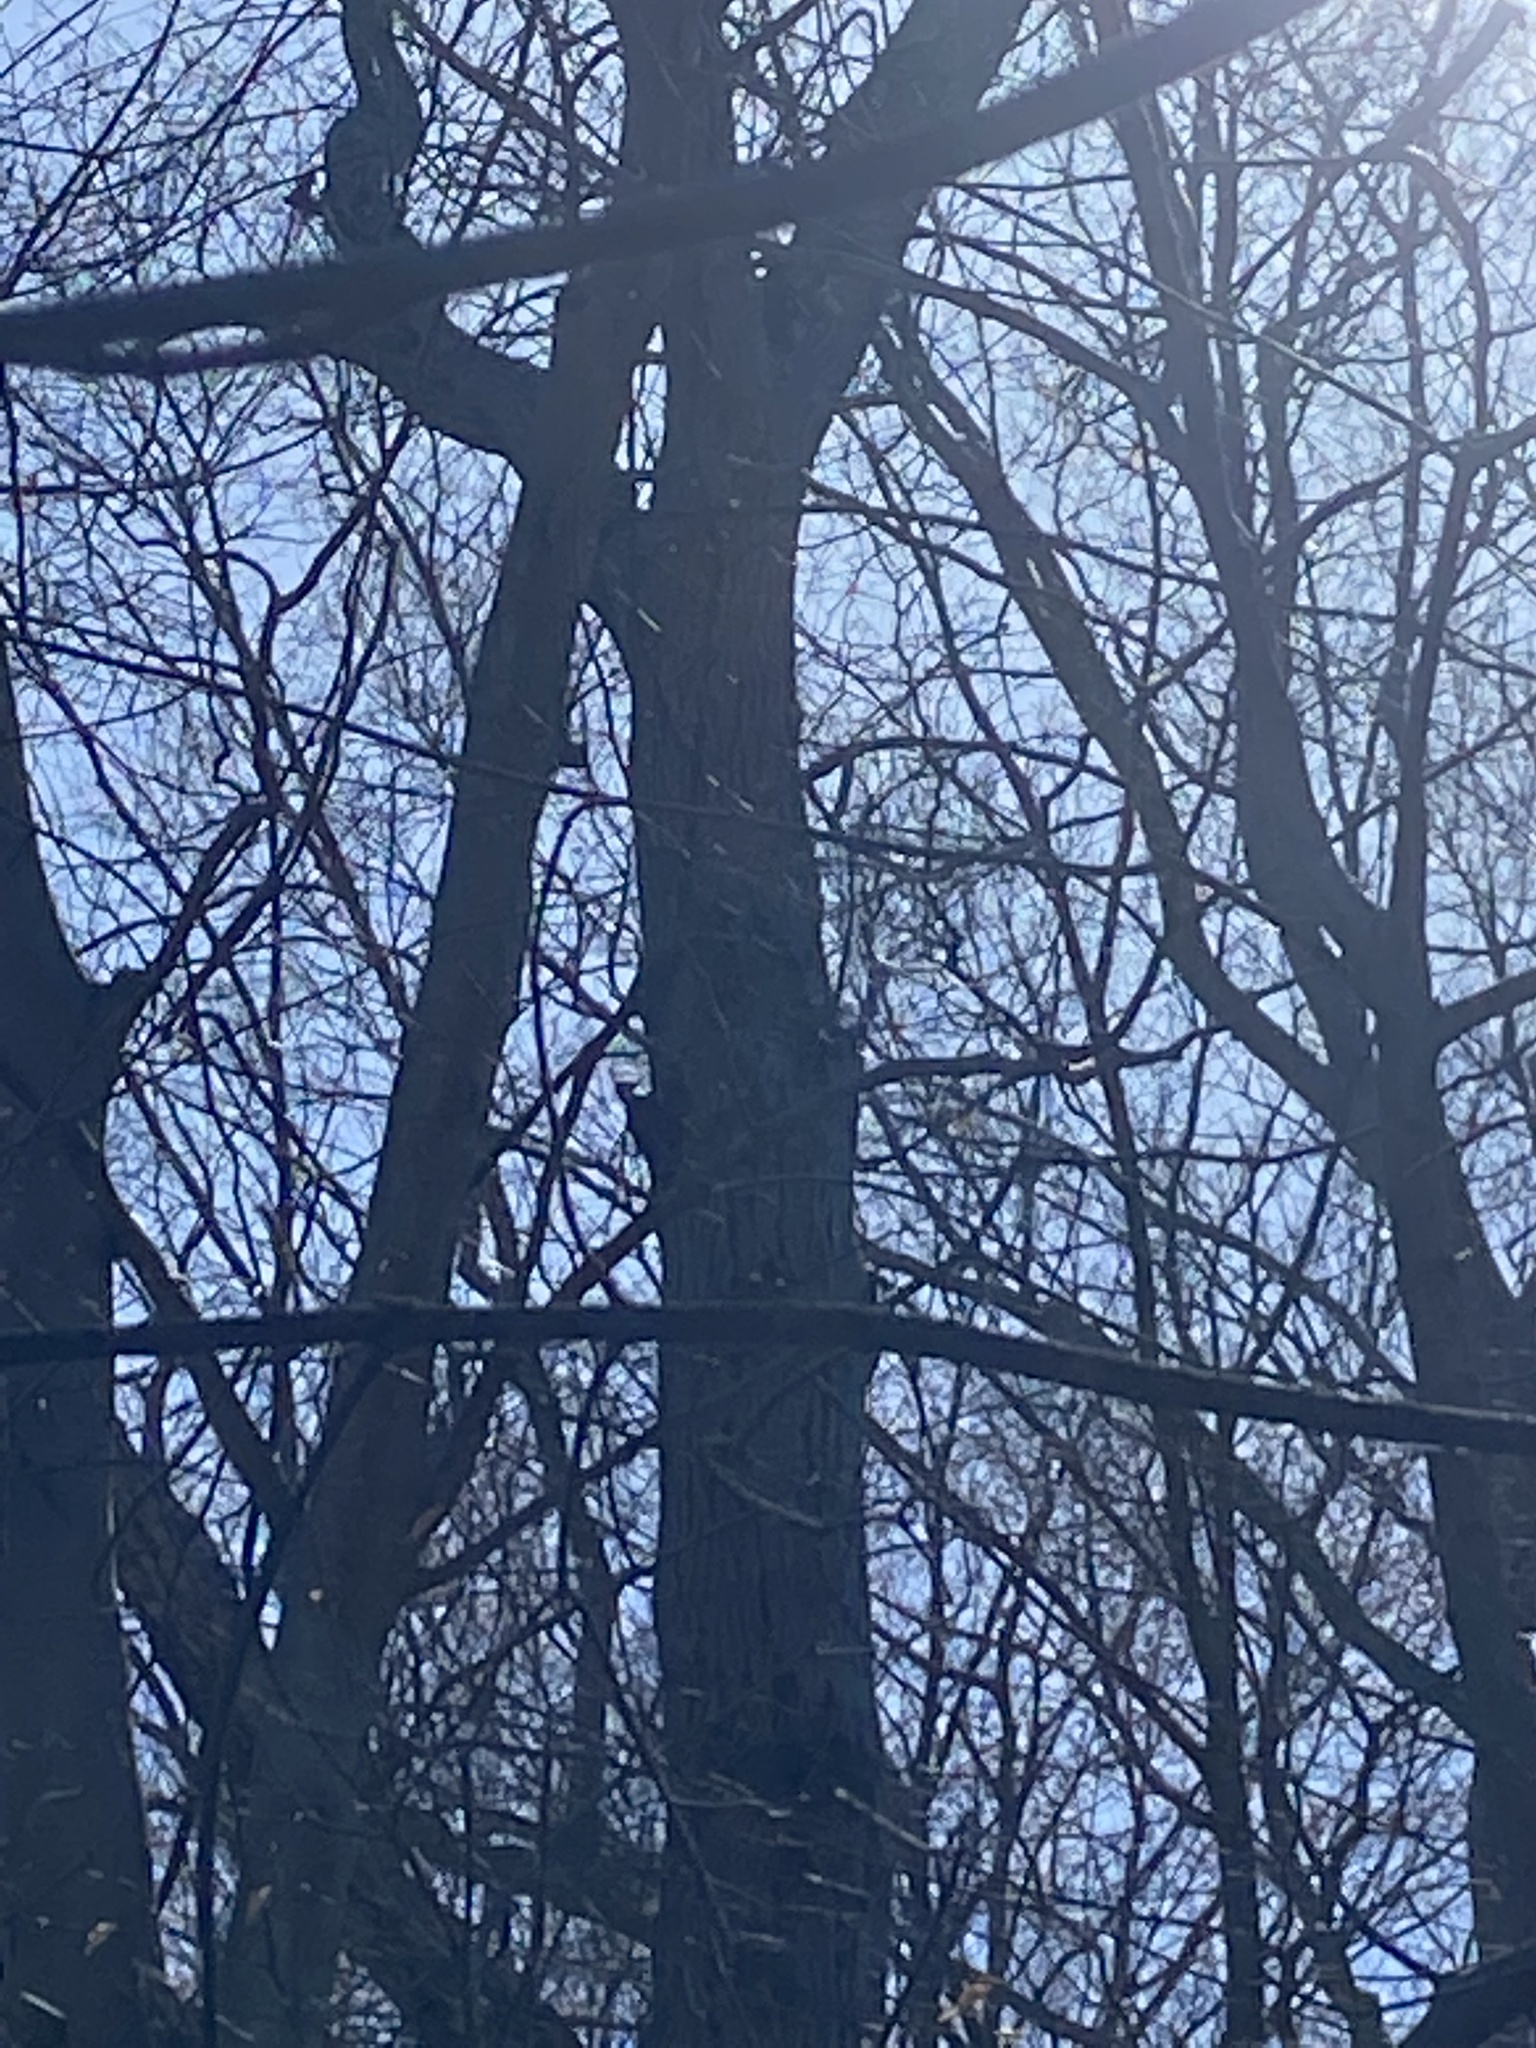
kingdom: Animalia
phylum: Chordata
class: Aves
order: Piciformes
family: Picidae
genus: Dryocopus
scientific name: Dryocopus pileatus
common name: Pileated woodpecker
